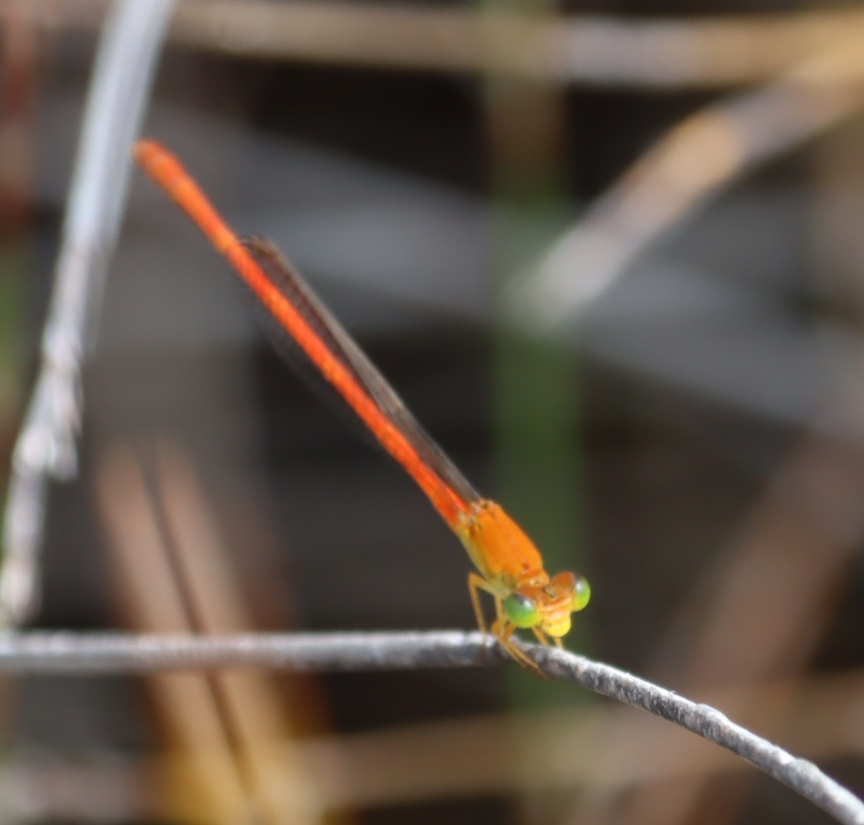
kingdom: Animalia
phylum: Arthropoda
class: Insecta
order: Odonata
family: Coenagrionidae
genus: Ceriagrion
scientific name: Ceriagrion glabrum
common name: Common pond damsel
